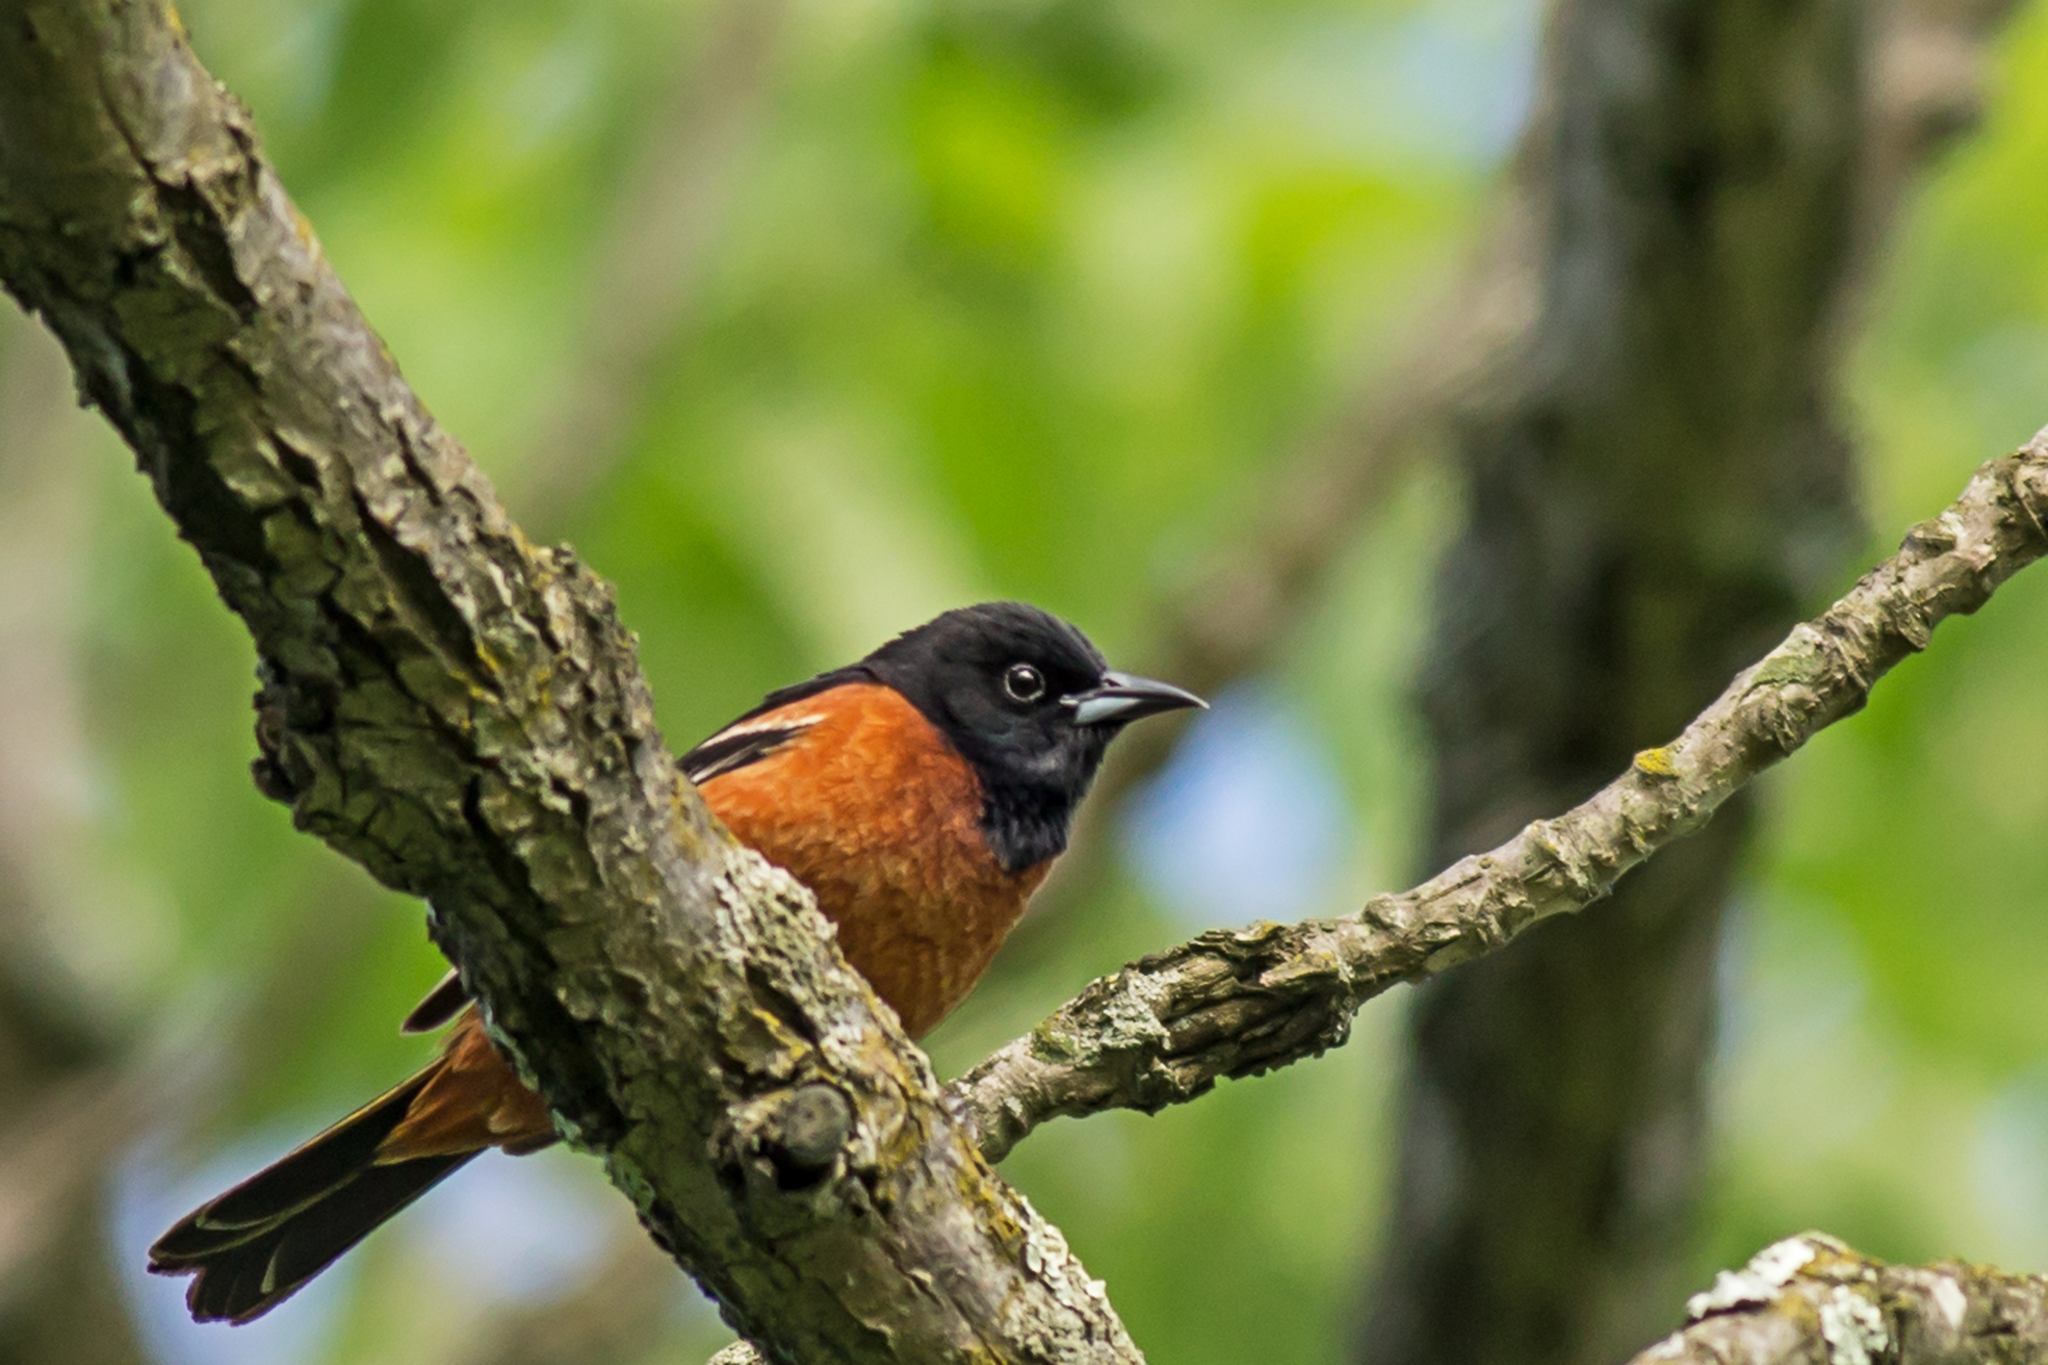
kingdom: Animalia
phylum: Chordata
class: Aves
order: Passeriformes
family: Icteridae
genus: Icterus
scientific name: Icterus spurius
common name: Orchard oriole
